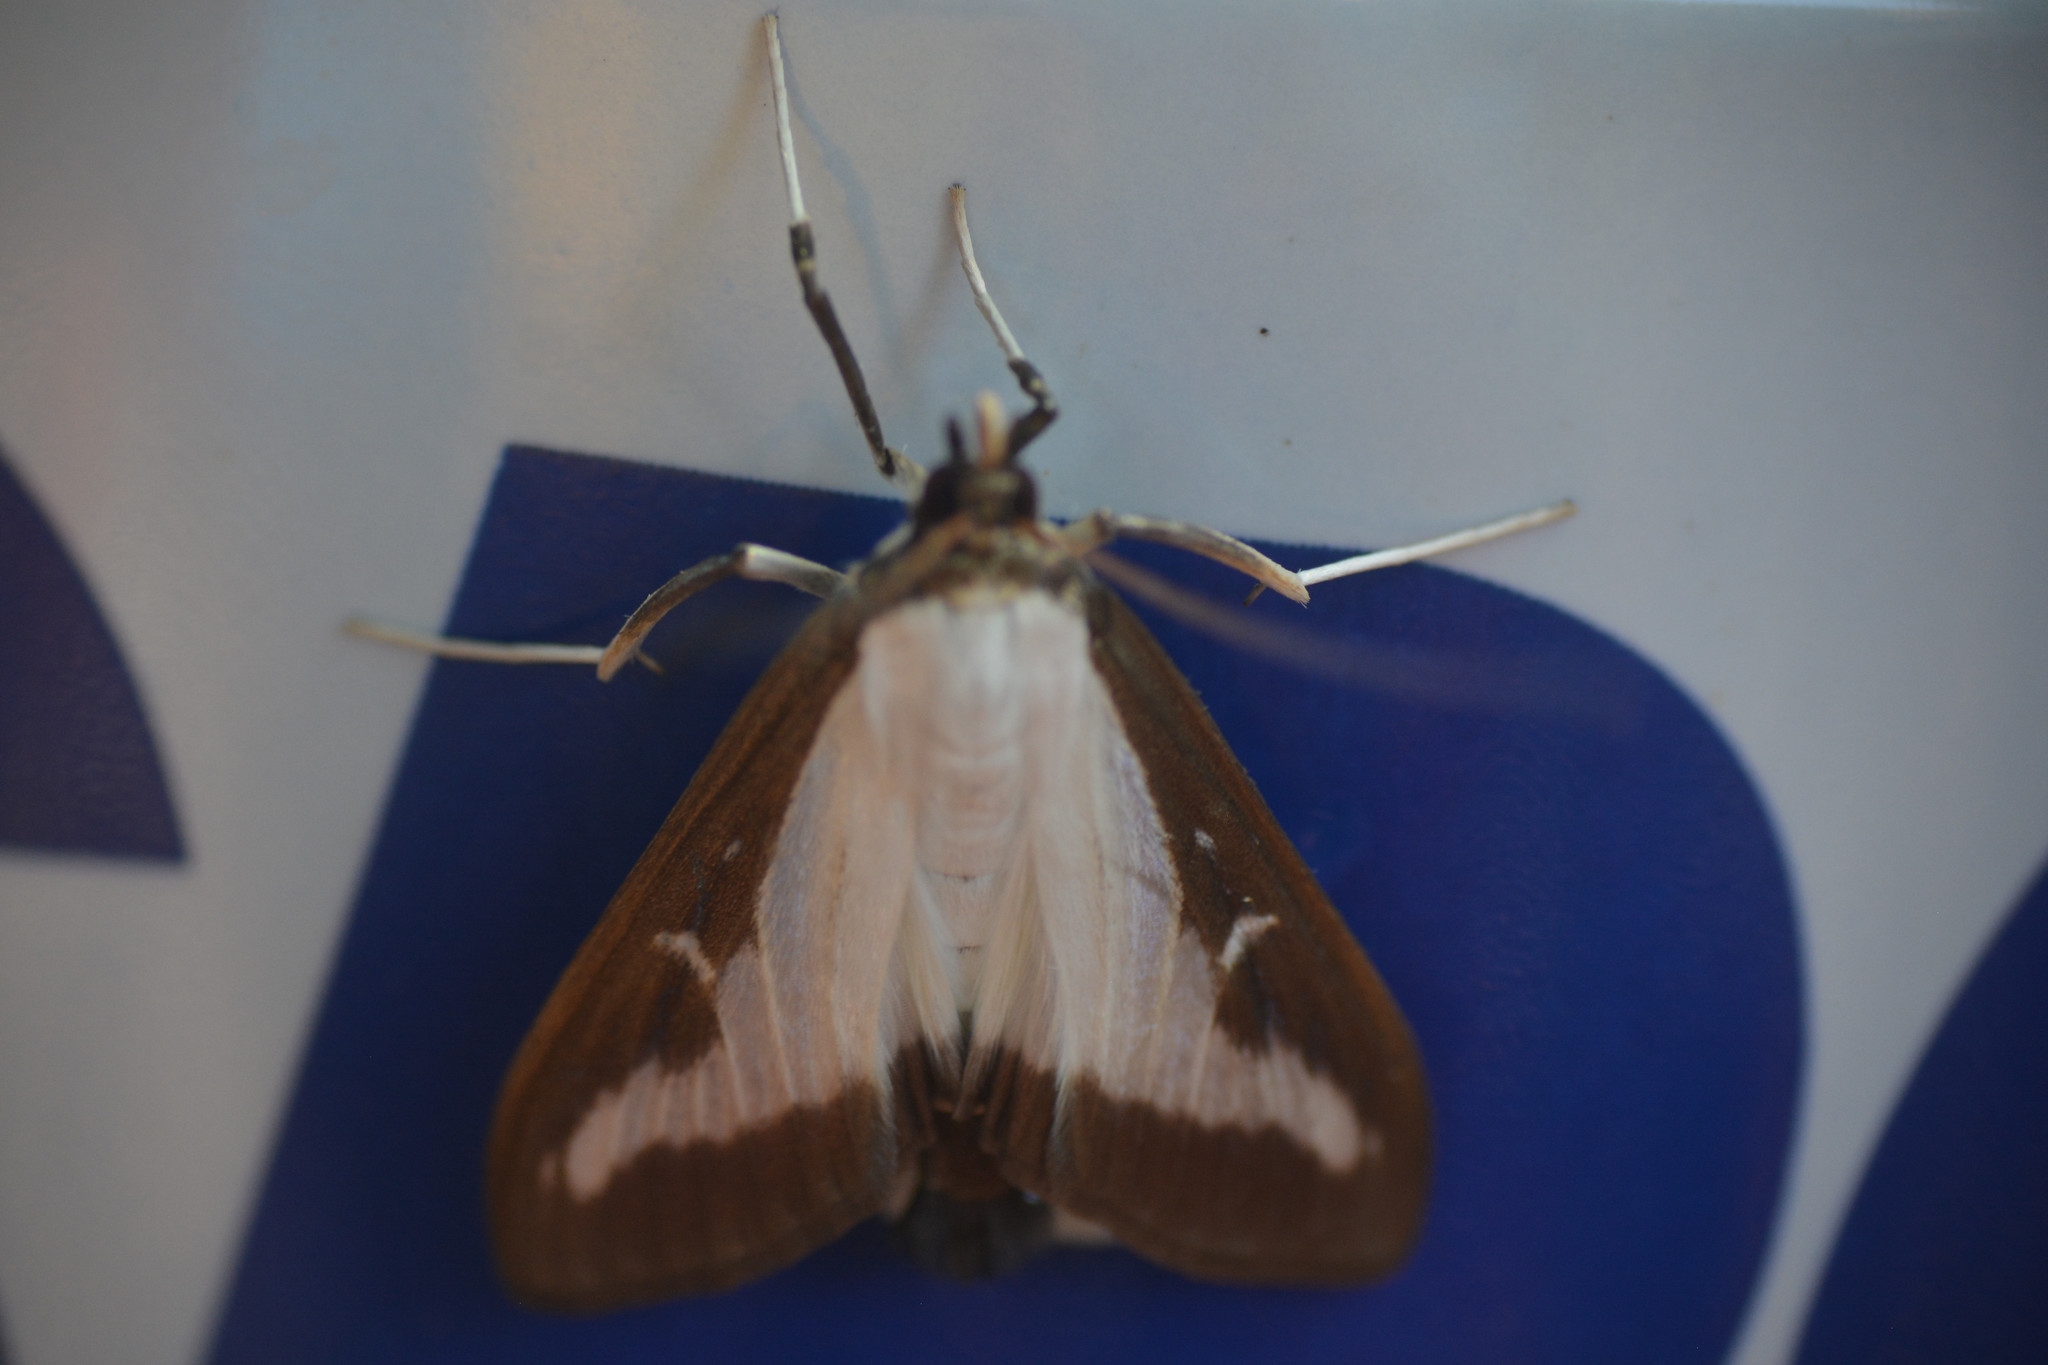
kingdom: Animalia
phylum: Arthropoda
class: Insecta
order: Lepidoptera
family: Crambidae
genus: Cydalima
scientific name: Cydalima perspectalis
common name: Box tree moth
